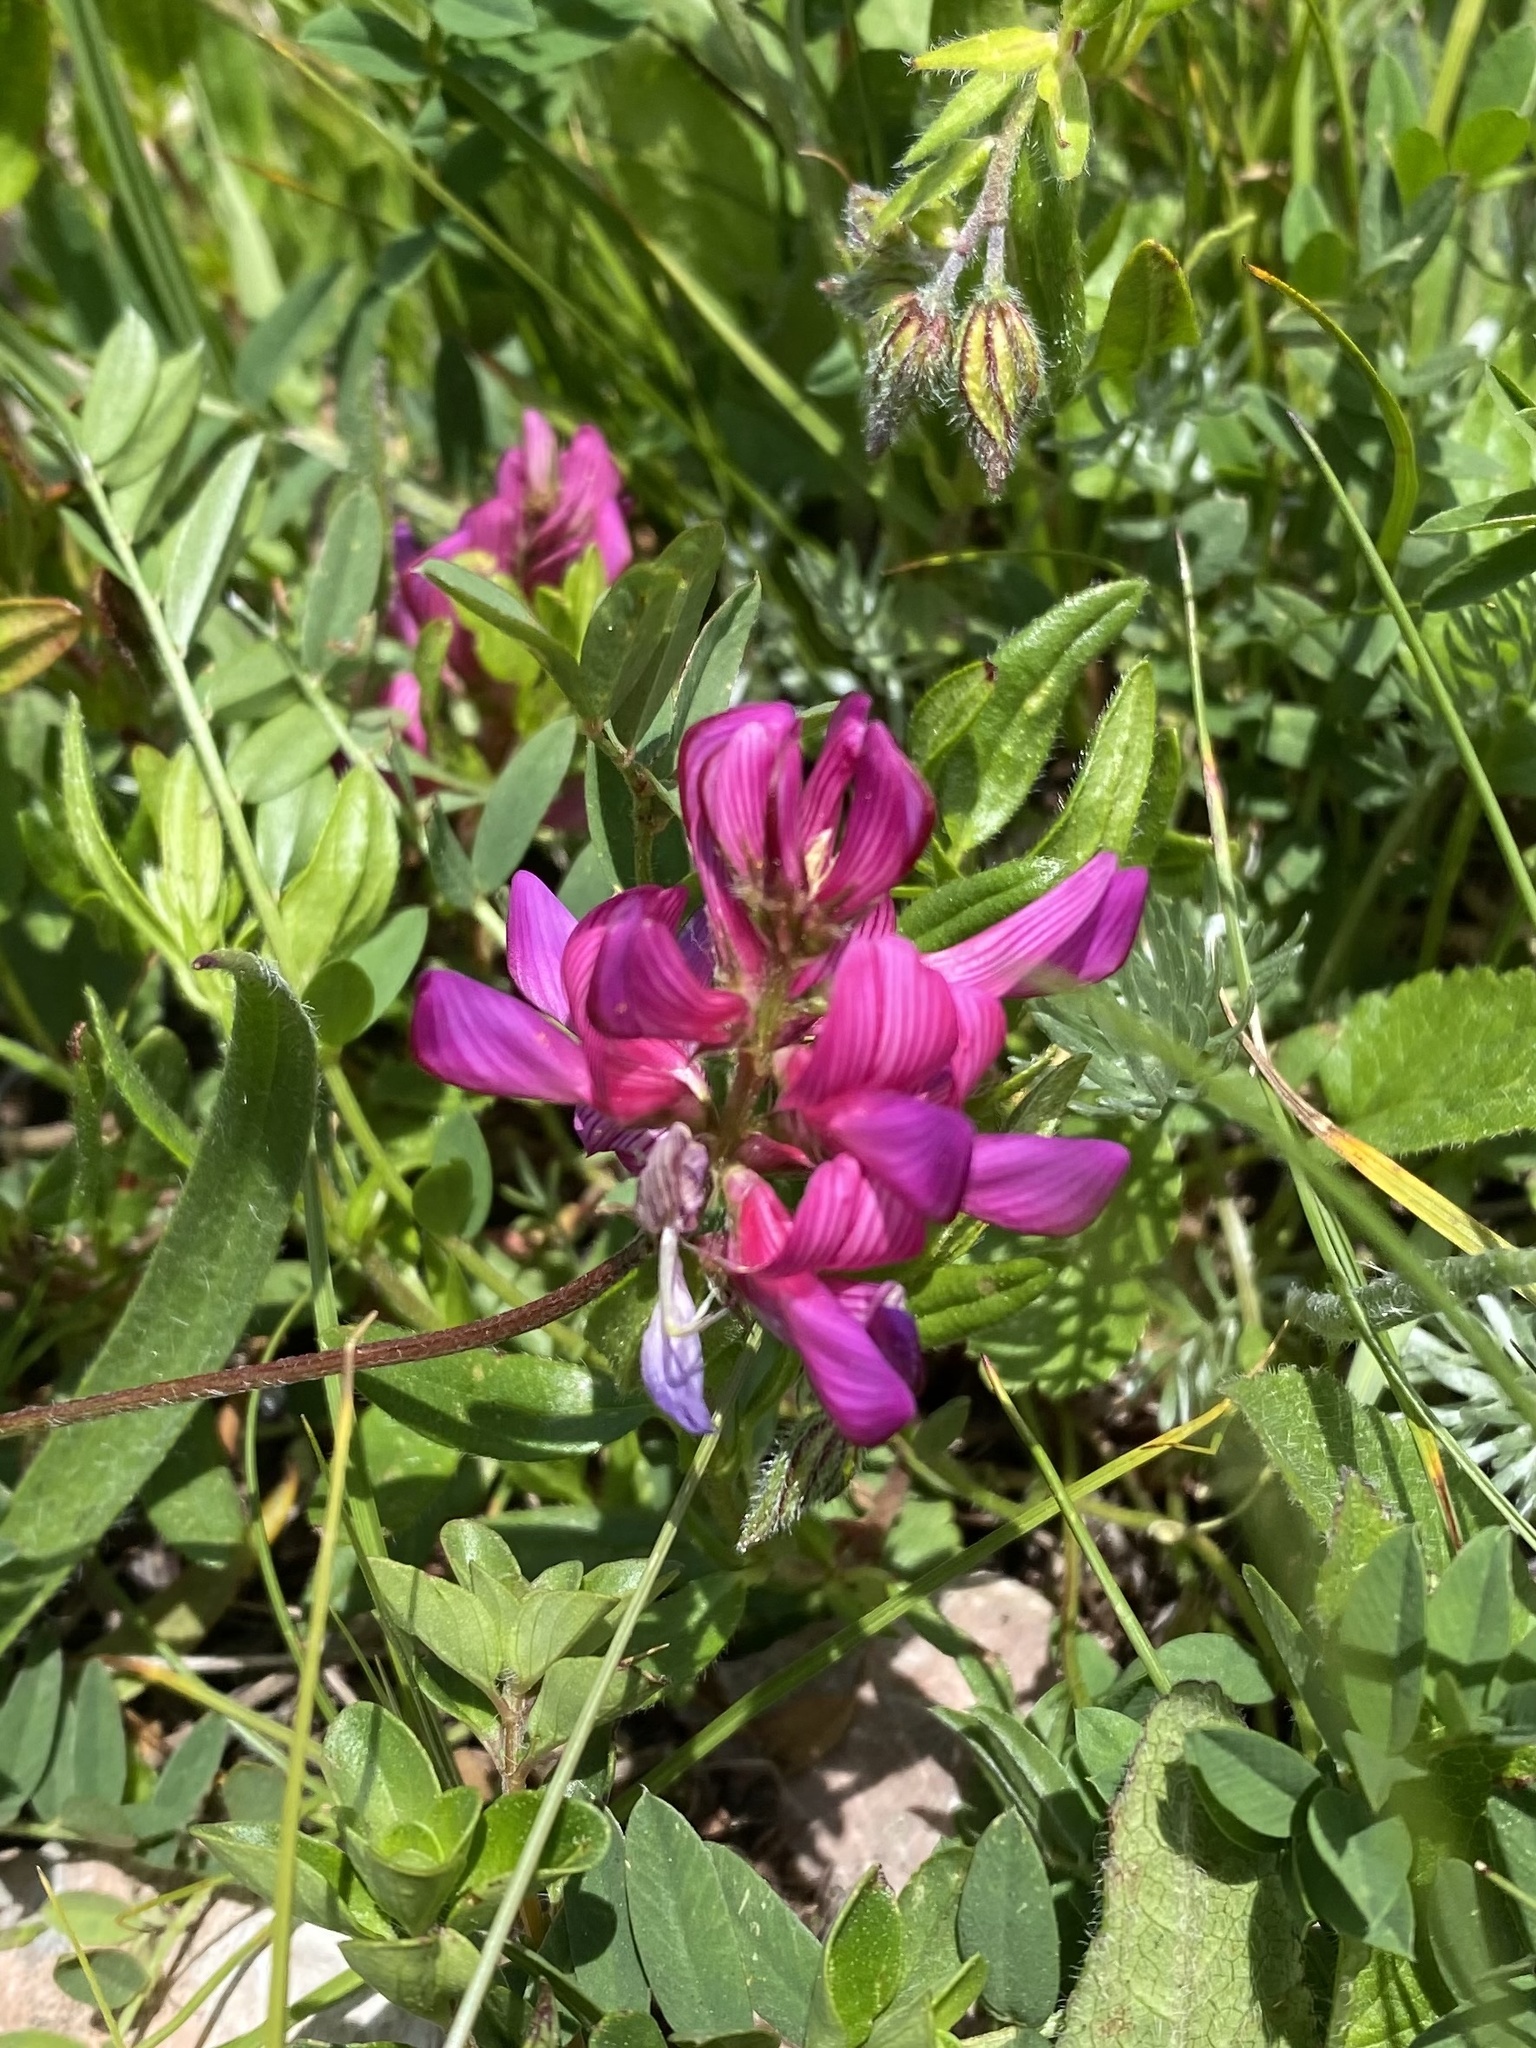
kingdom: Plantae
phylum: Tracheophyta
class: Magnoliopsida
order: Fabales
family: Fabaceae
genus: Onobrychis
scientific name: Onobrychis biebersteinii
